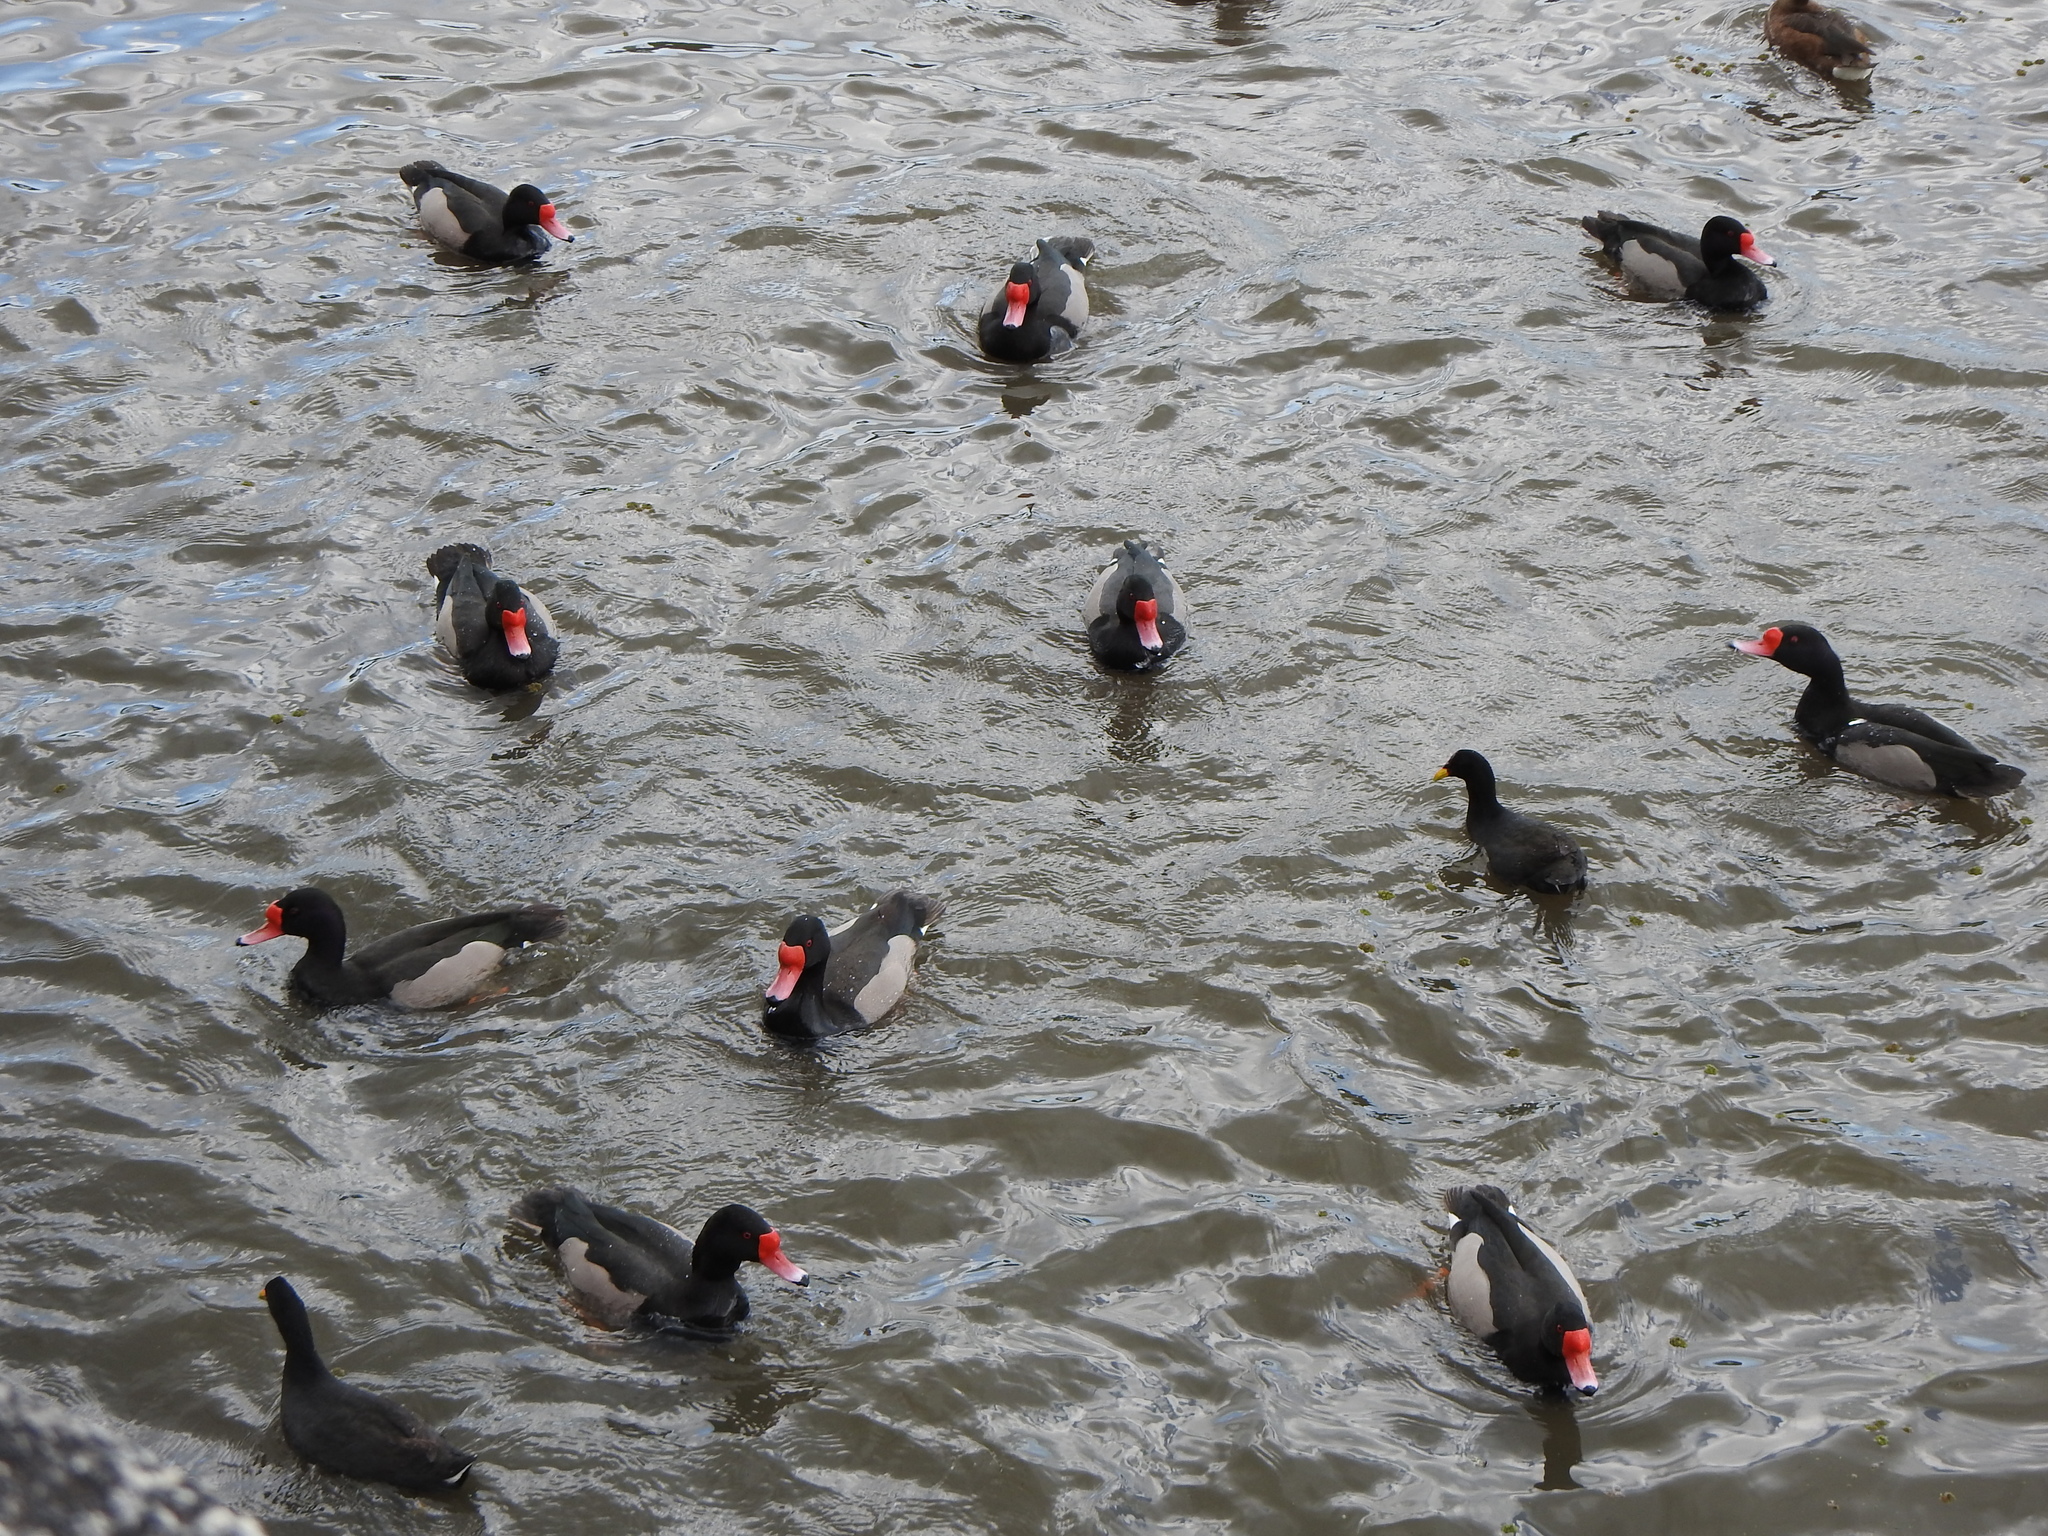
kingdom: Animalia
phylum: Chordata
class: Aves
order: Anseriformes
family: Anatidae
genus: Netta
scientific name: Netta peposaca
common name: Rosy-billed pochard
